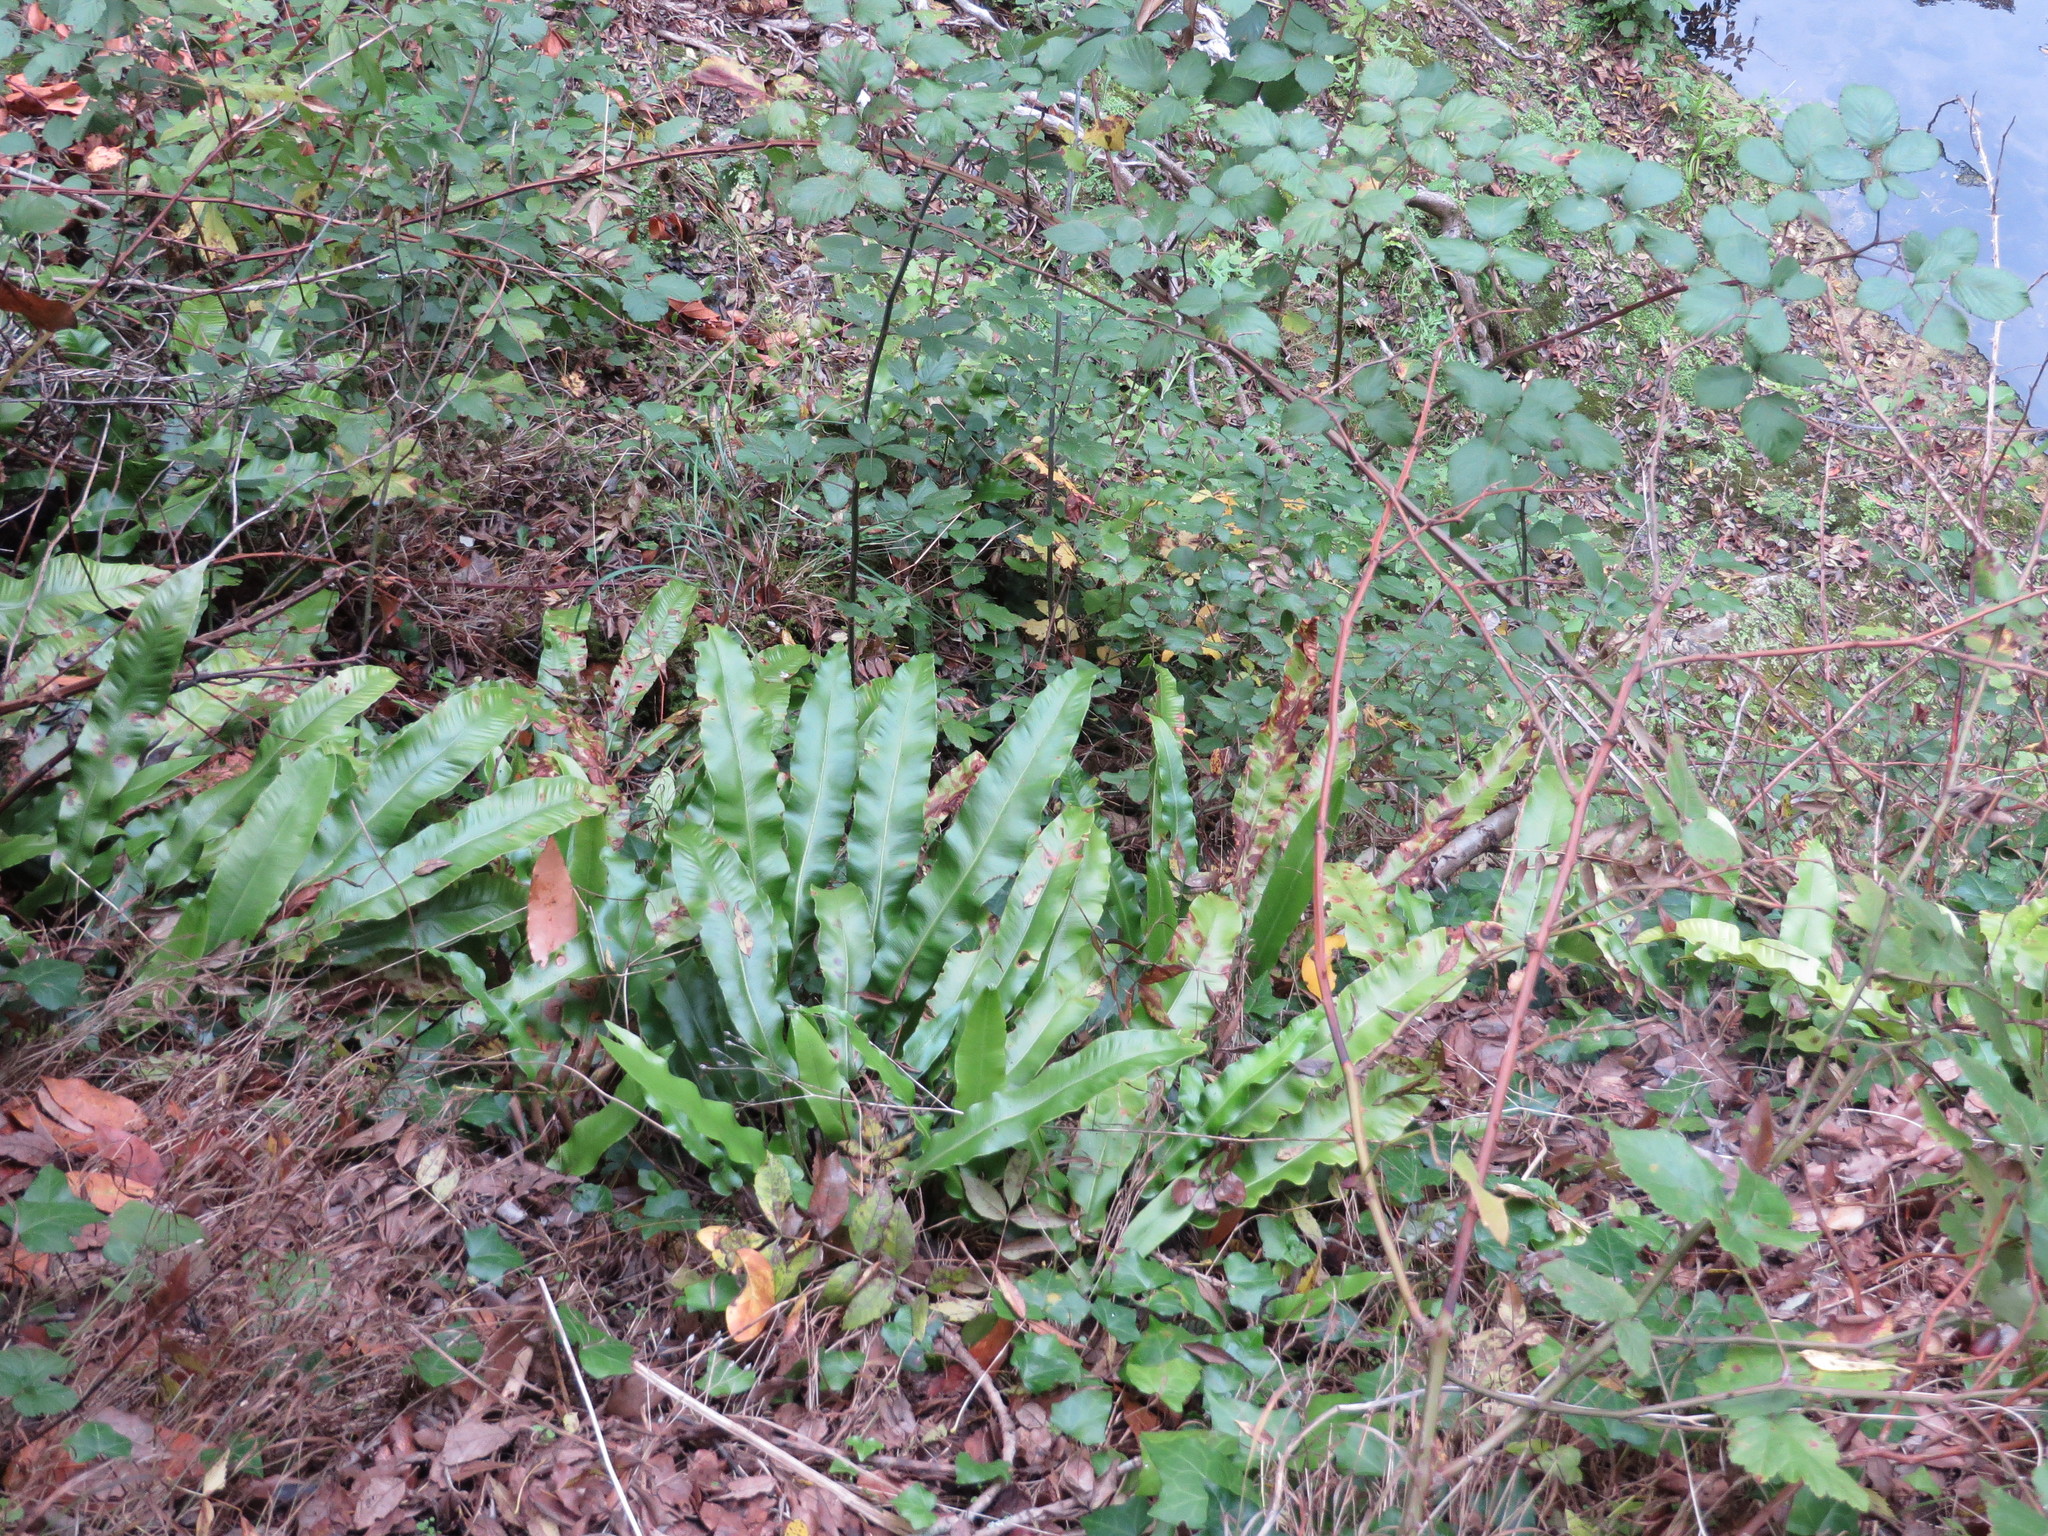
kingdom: Plantae
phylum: Tracheophyta
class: Polypodiopsida
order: Polypodiales
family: Aspleniaceae
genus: Asplenium
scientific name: Asplenium scolopendrium
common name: Hart's-tongue fern
